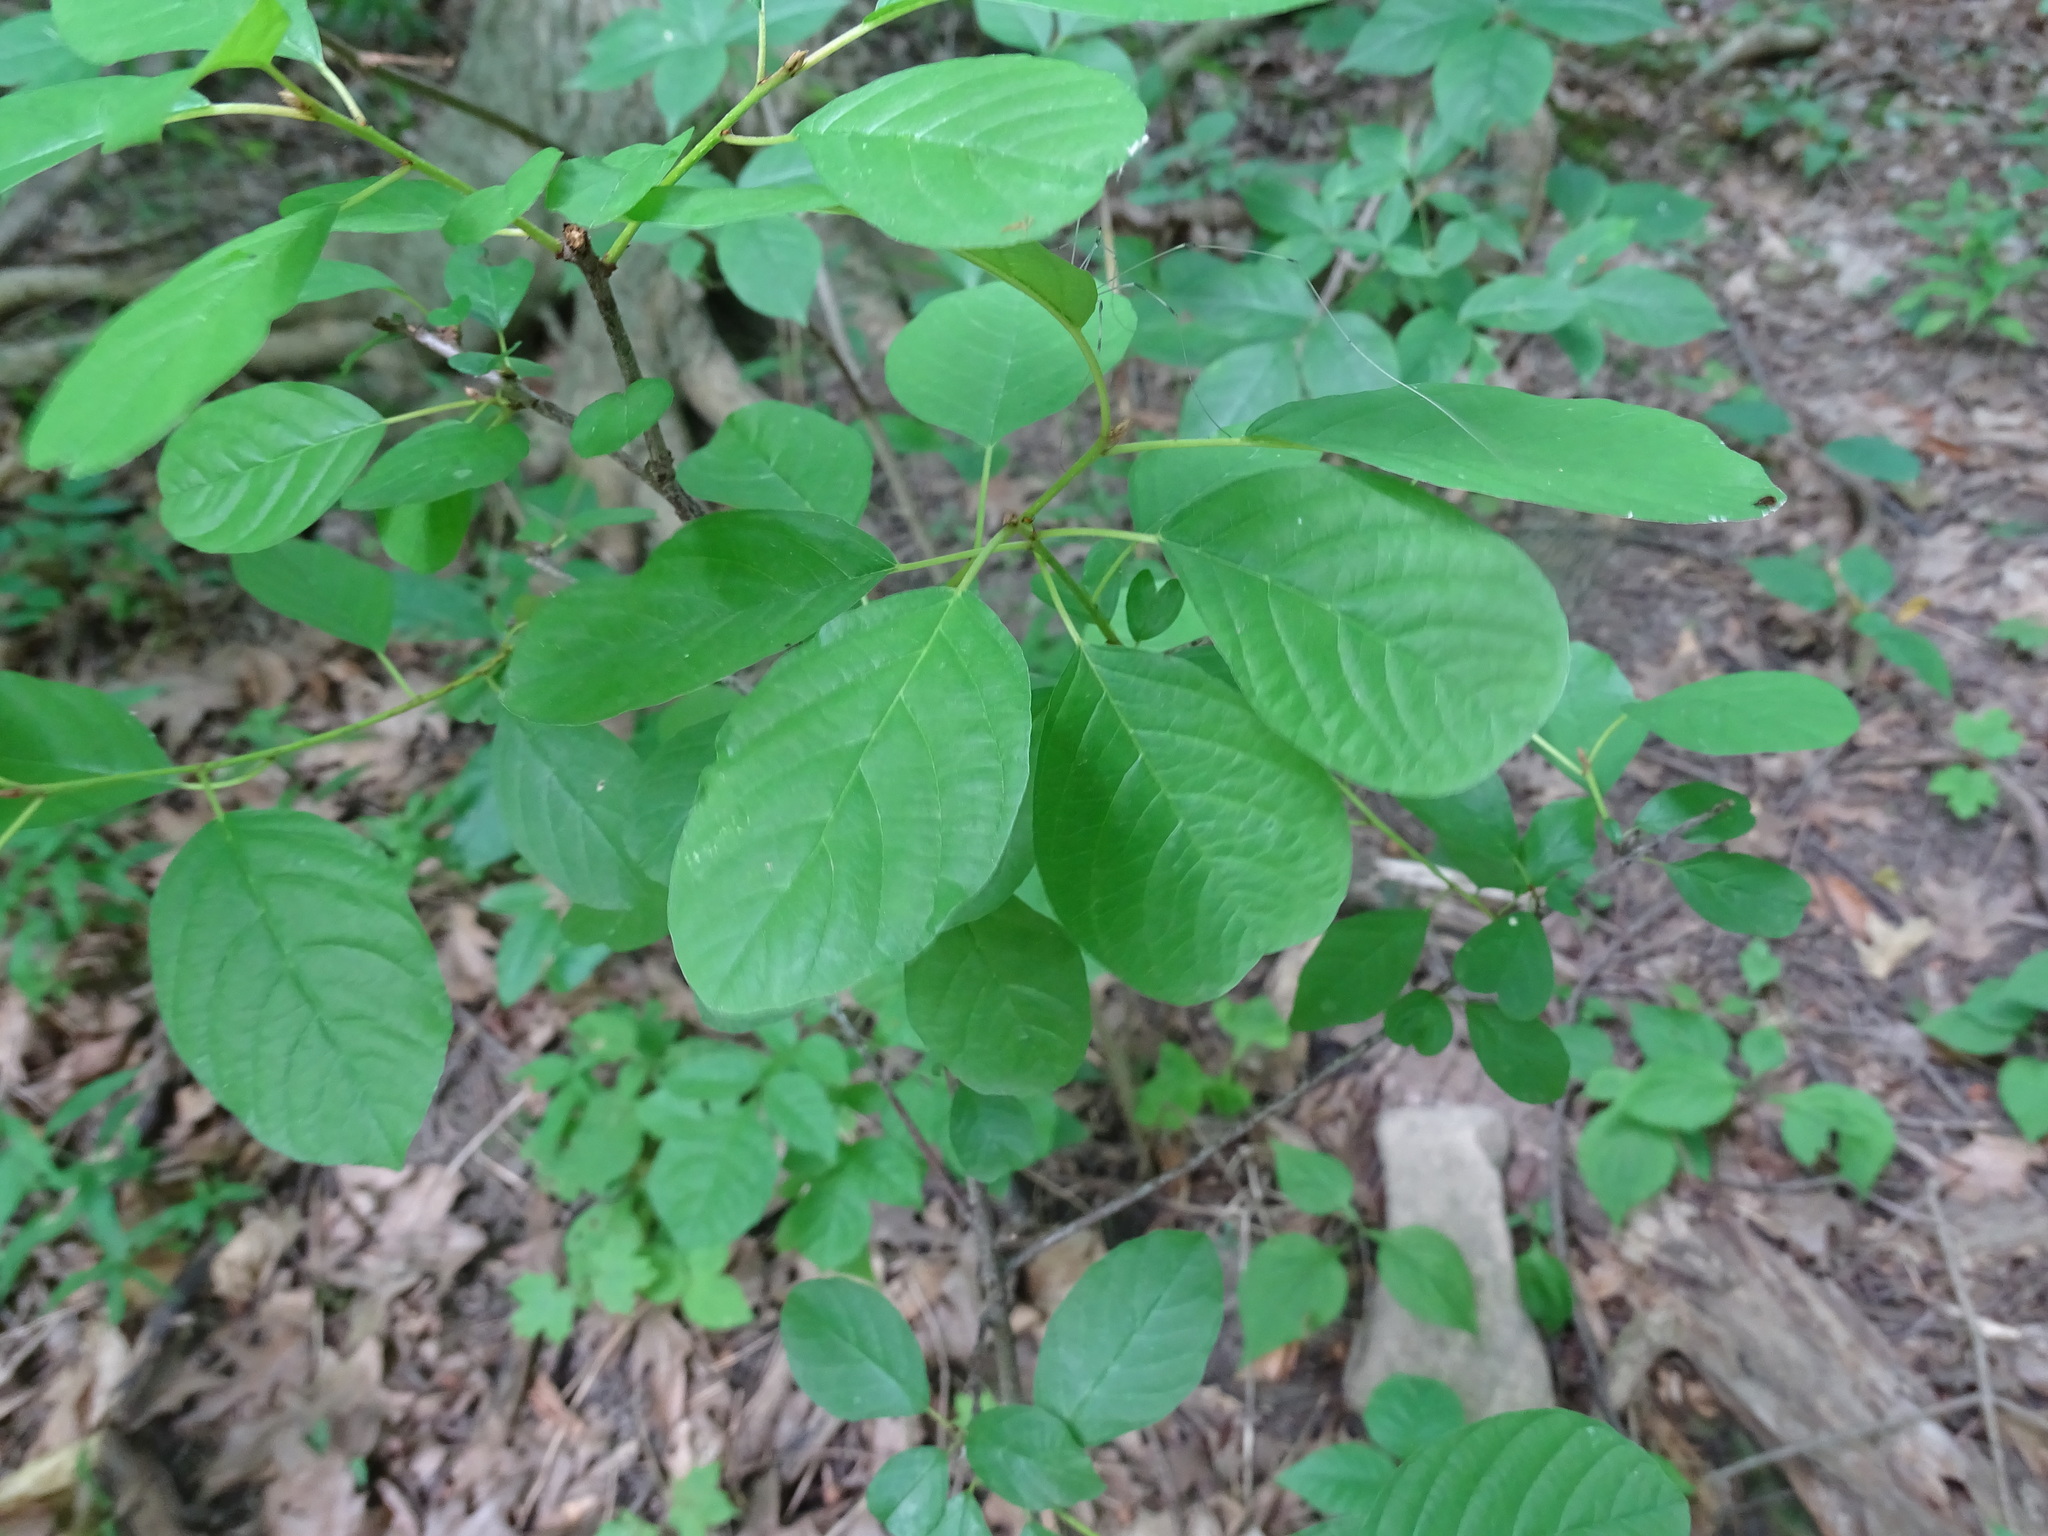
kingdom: Plantae
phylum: Tracheophyta
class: Magnoliopsida
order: Rosales
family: Rhamnaceae
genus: Frangula
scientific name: Frangula alnus
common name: Alder buckthorn
